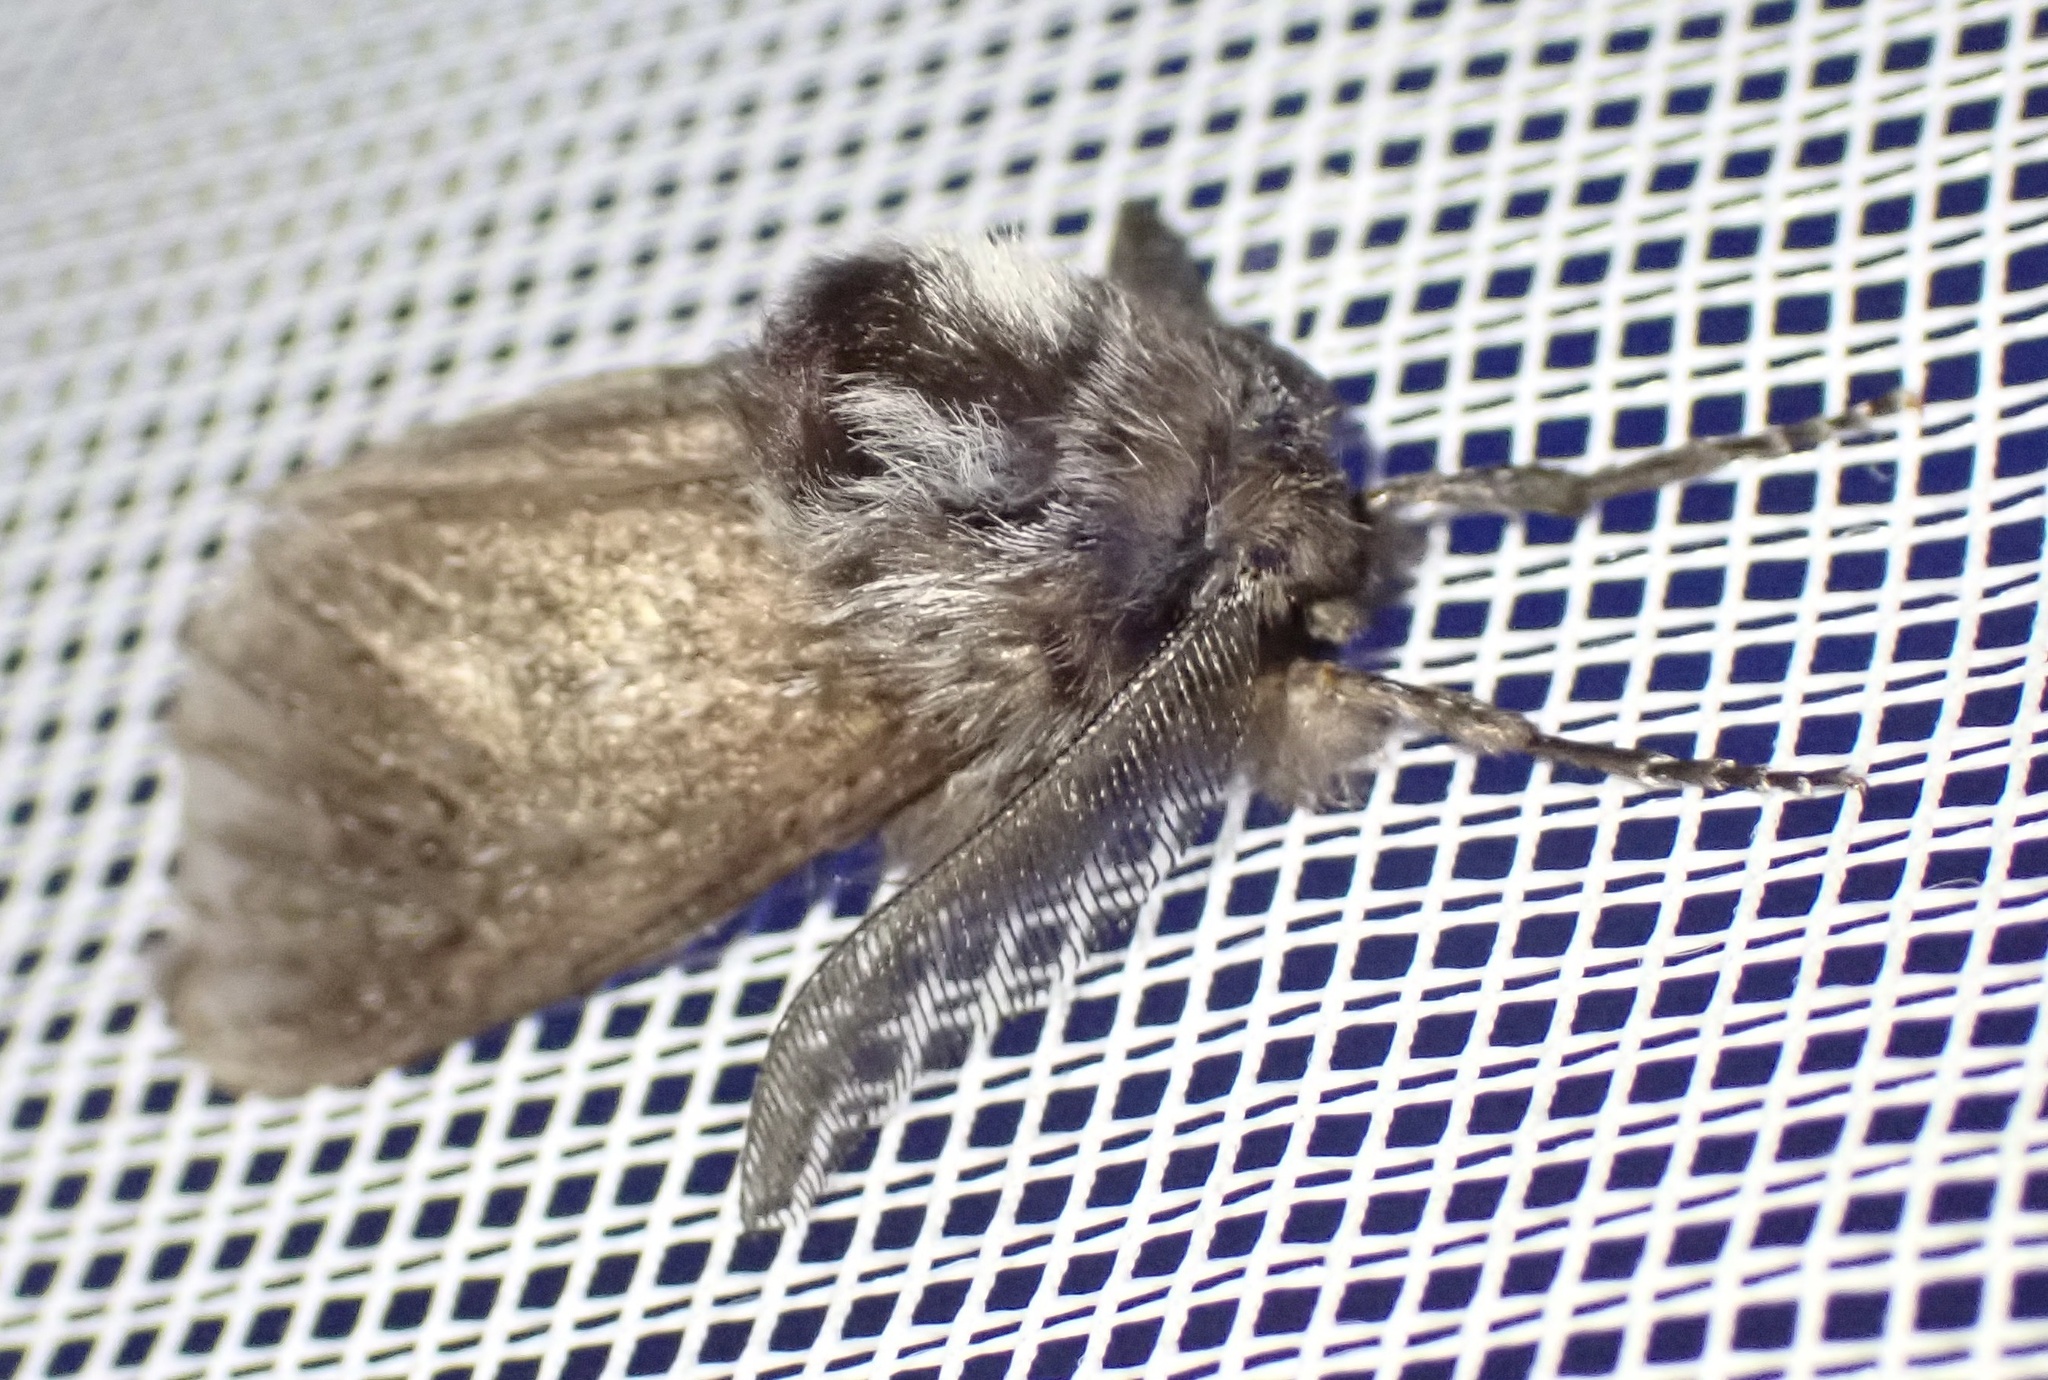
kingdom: Animalia
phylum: Arthropoda
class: Insecta
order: Lepidoptera
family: Cossidae
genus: Ptilomacra
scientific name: Ptilomacra senex
